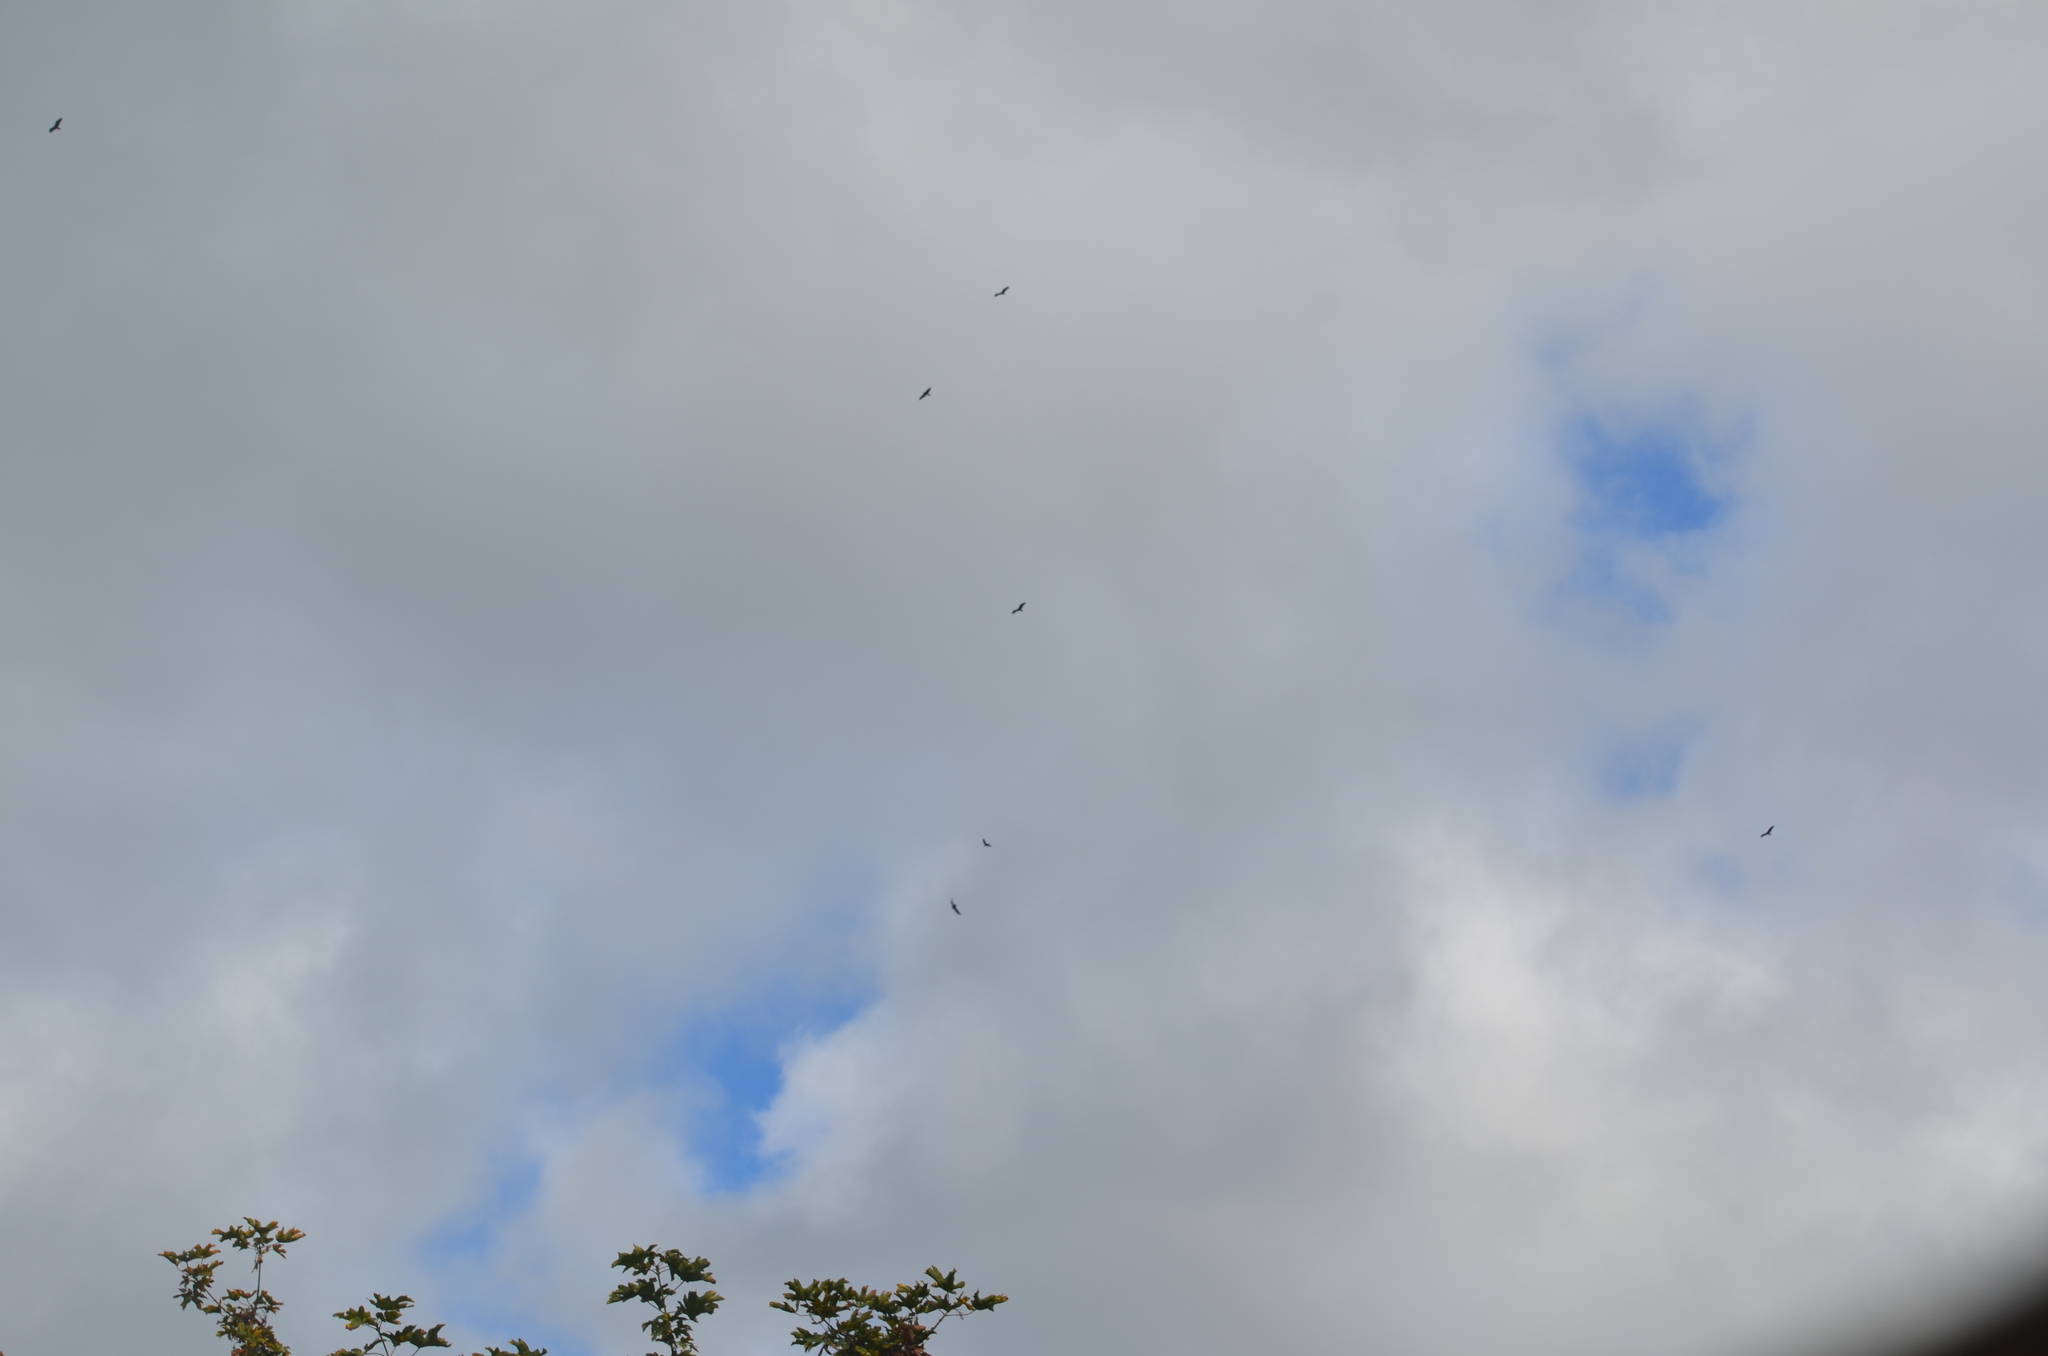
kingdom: Animalia
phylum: Chordata
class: Aves
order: Accipitriformes
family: Cathartidae
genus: Cathartes
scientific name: Cathartes aura
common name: Turkey vulture
